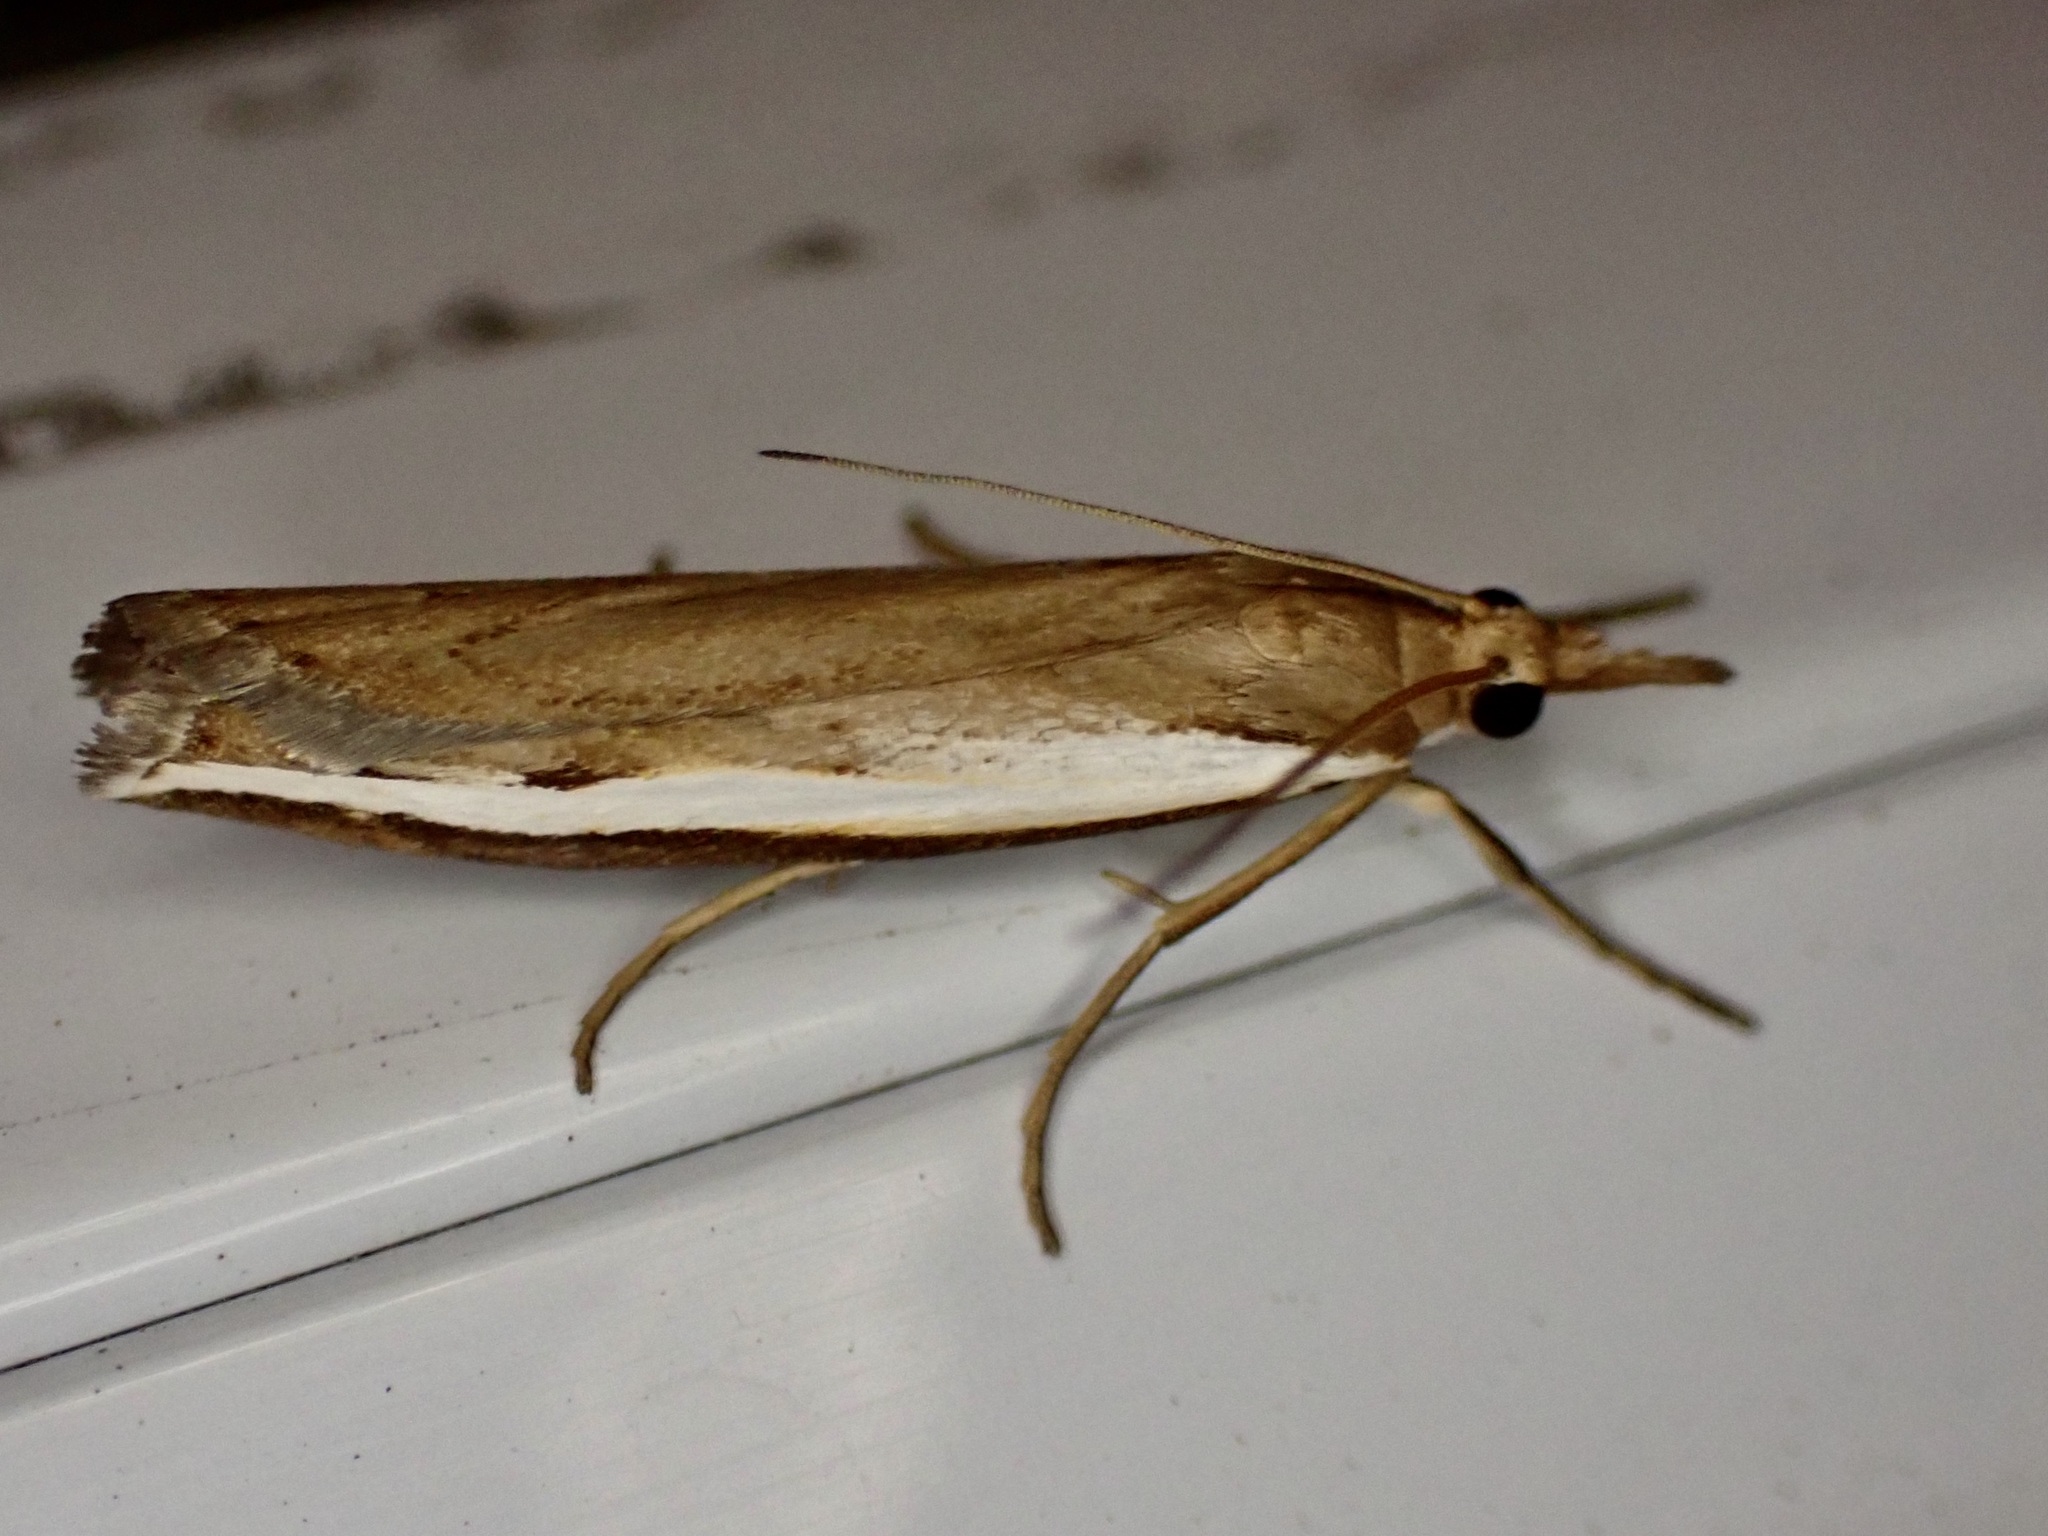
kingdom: Animalia
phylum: Arthropoda
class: Insecta
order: Lepidoptera
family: Crambidae
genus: Orocrambus
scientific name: Orocrambus flexuosellus
